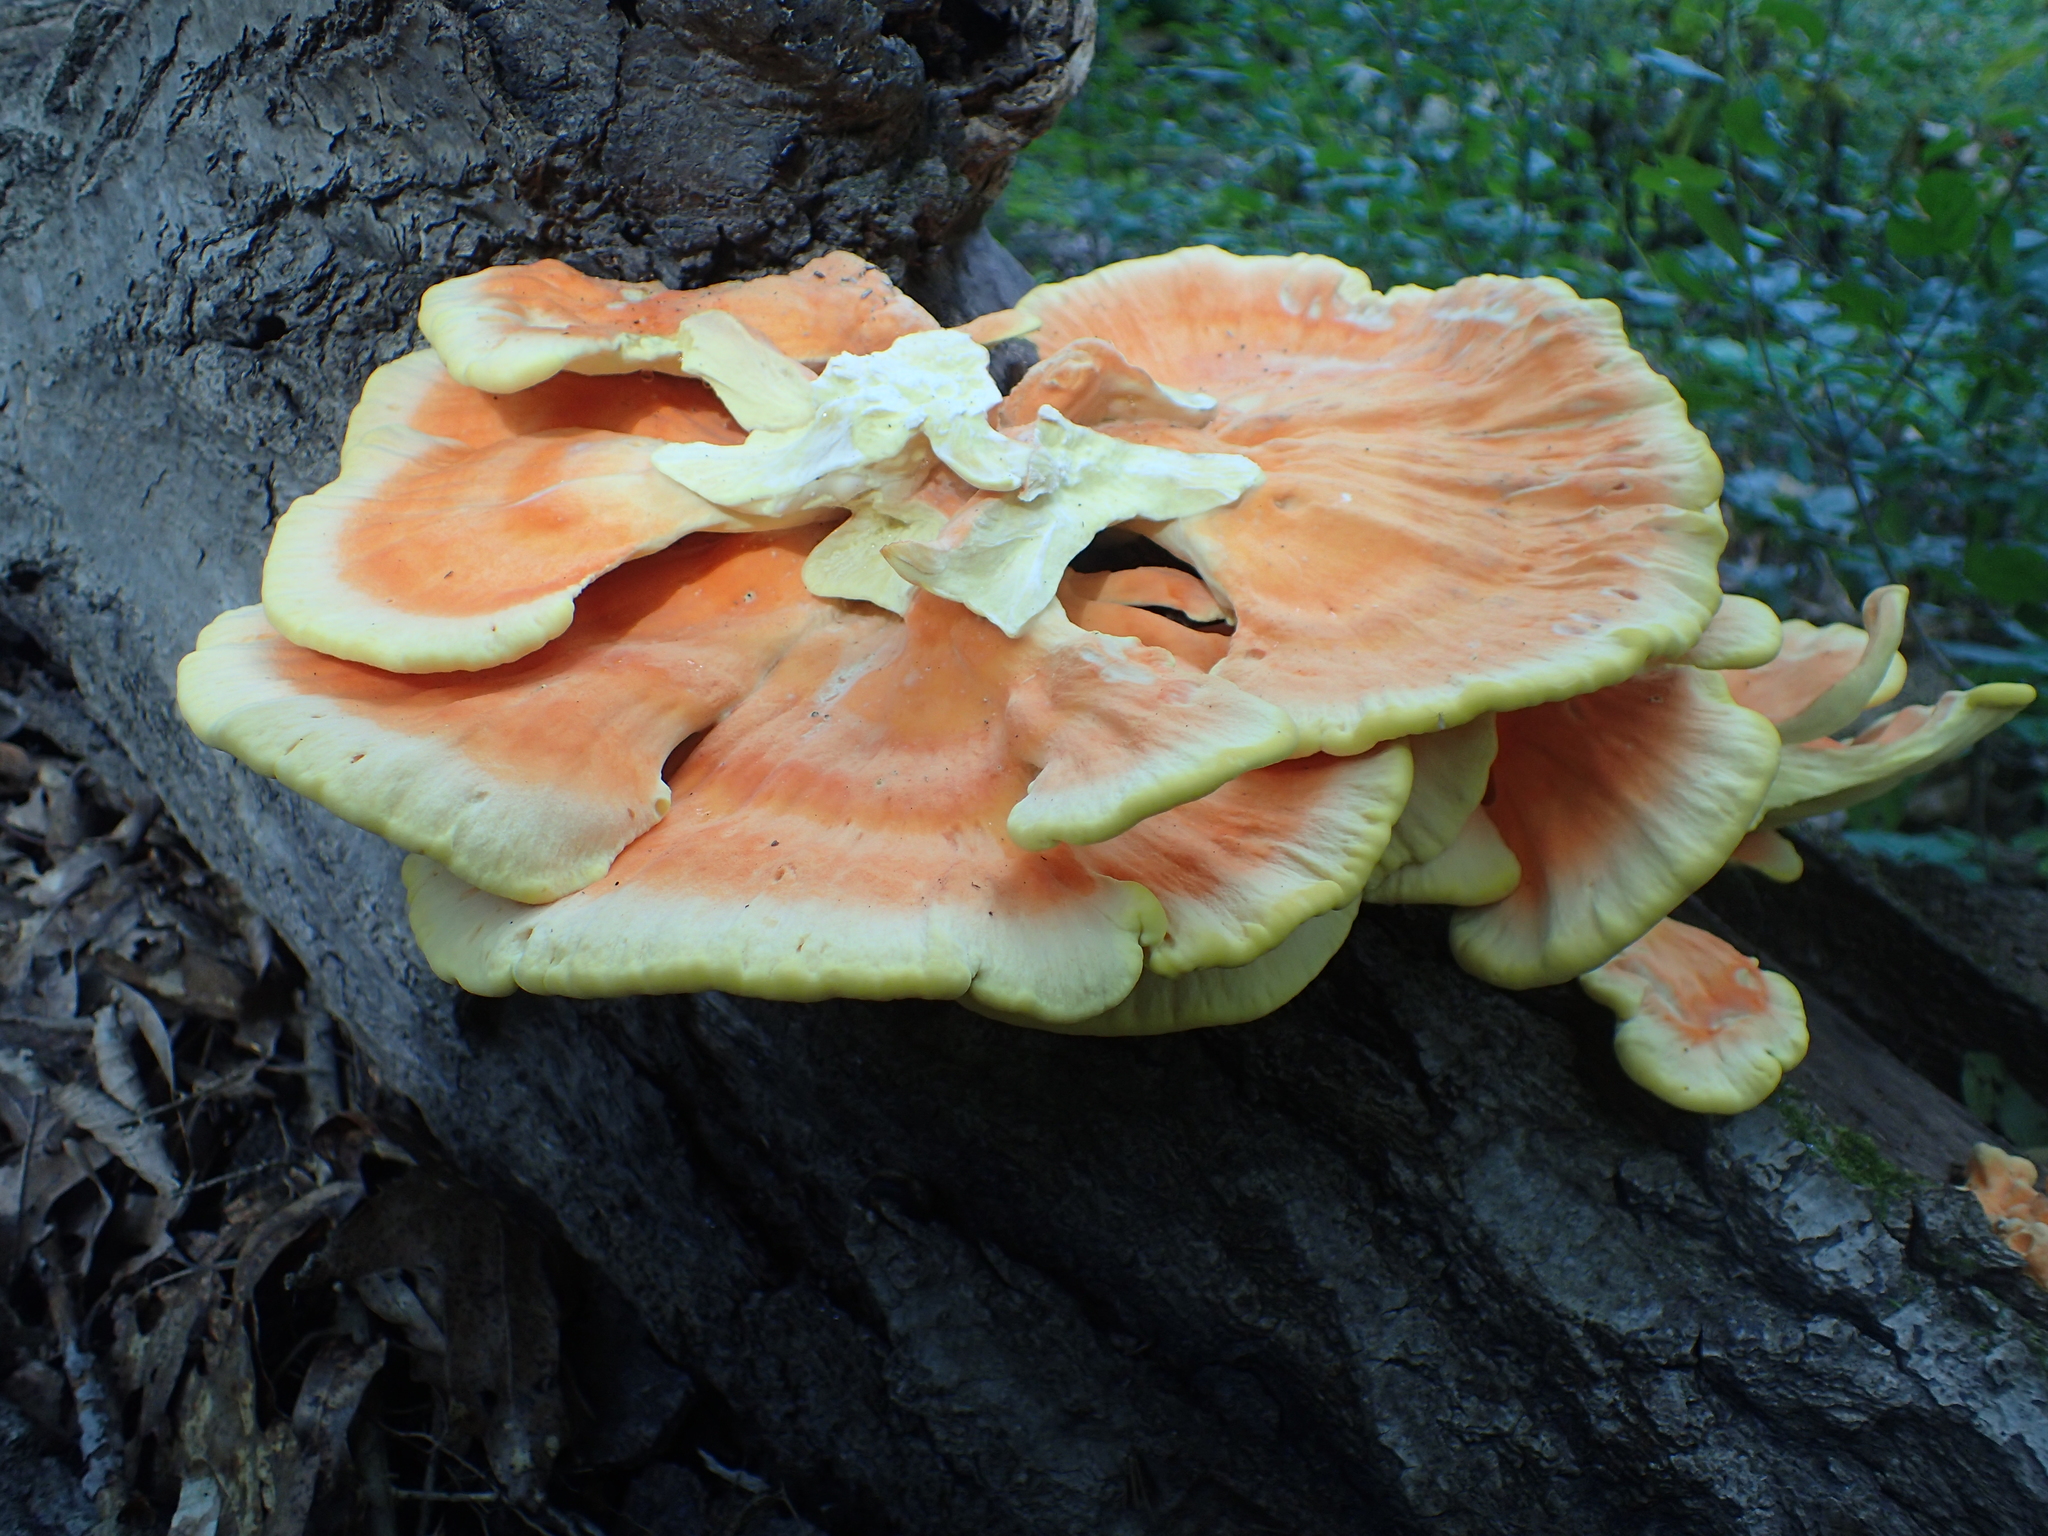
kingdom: Fungi
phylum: Basidiomycota
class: Agaricomycetes
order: Polyporales
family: Laetiporaceae
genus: Laetiporus
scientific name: Laetiporus sulphureus
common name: Chicken of the woods
